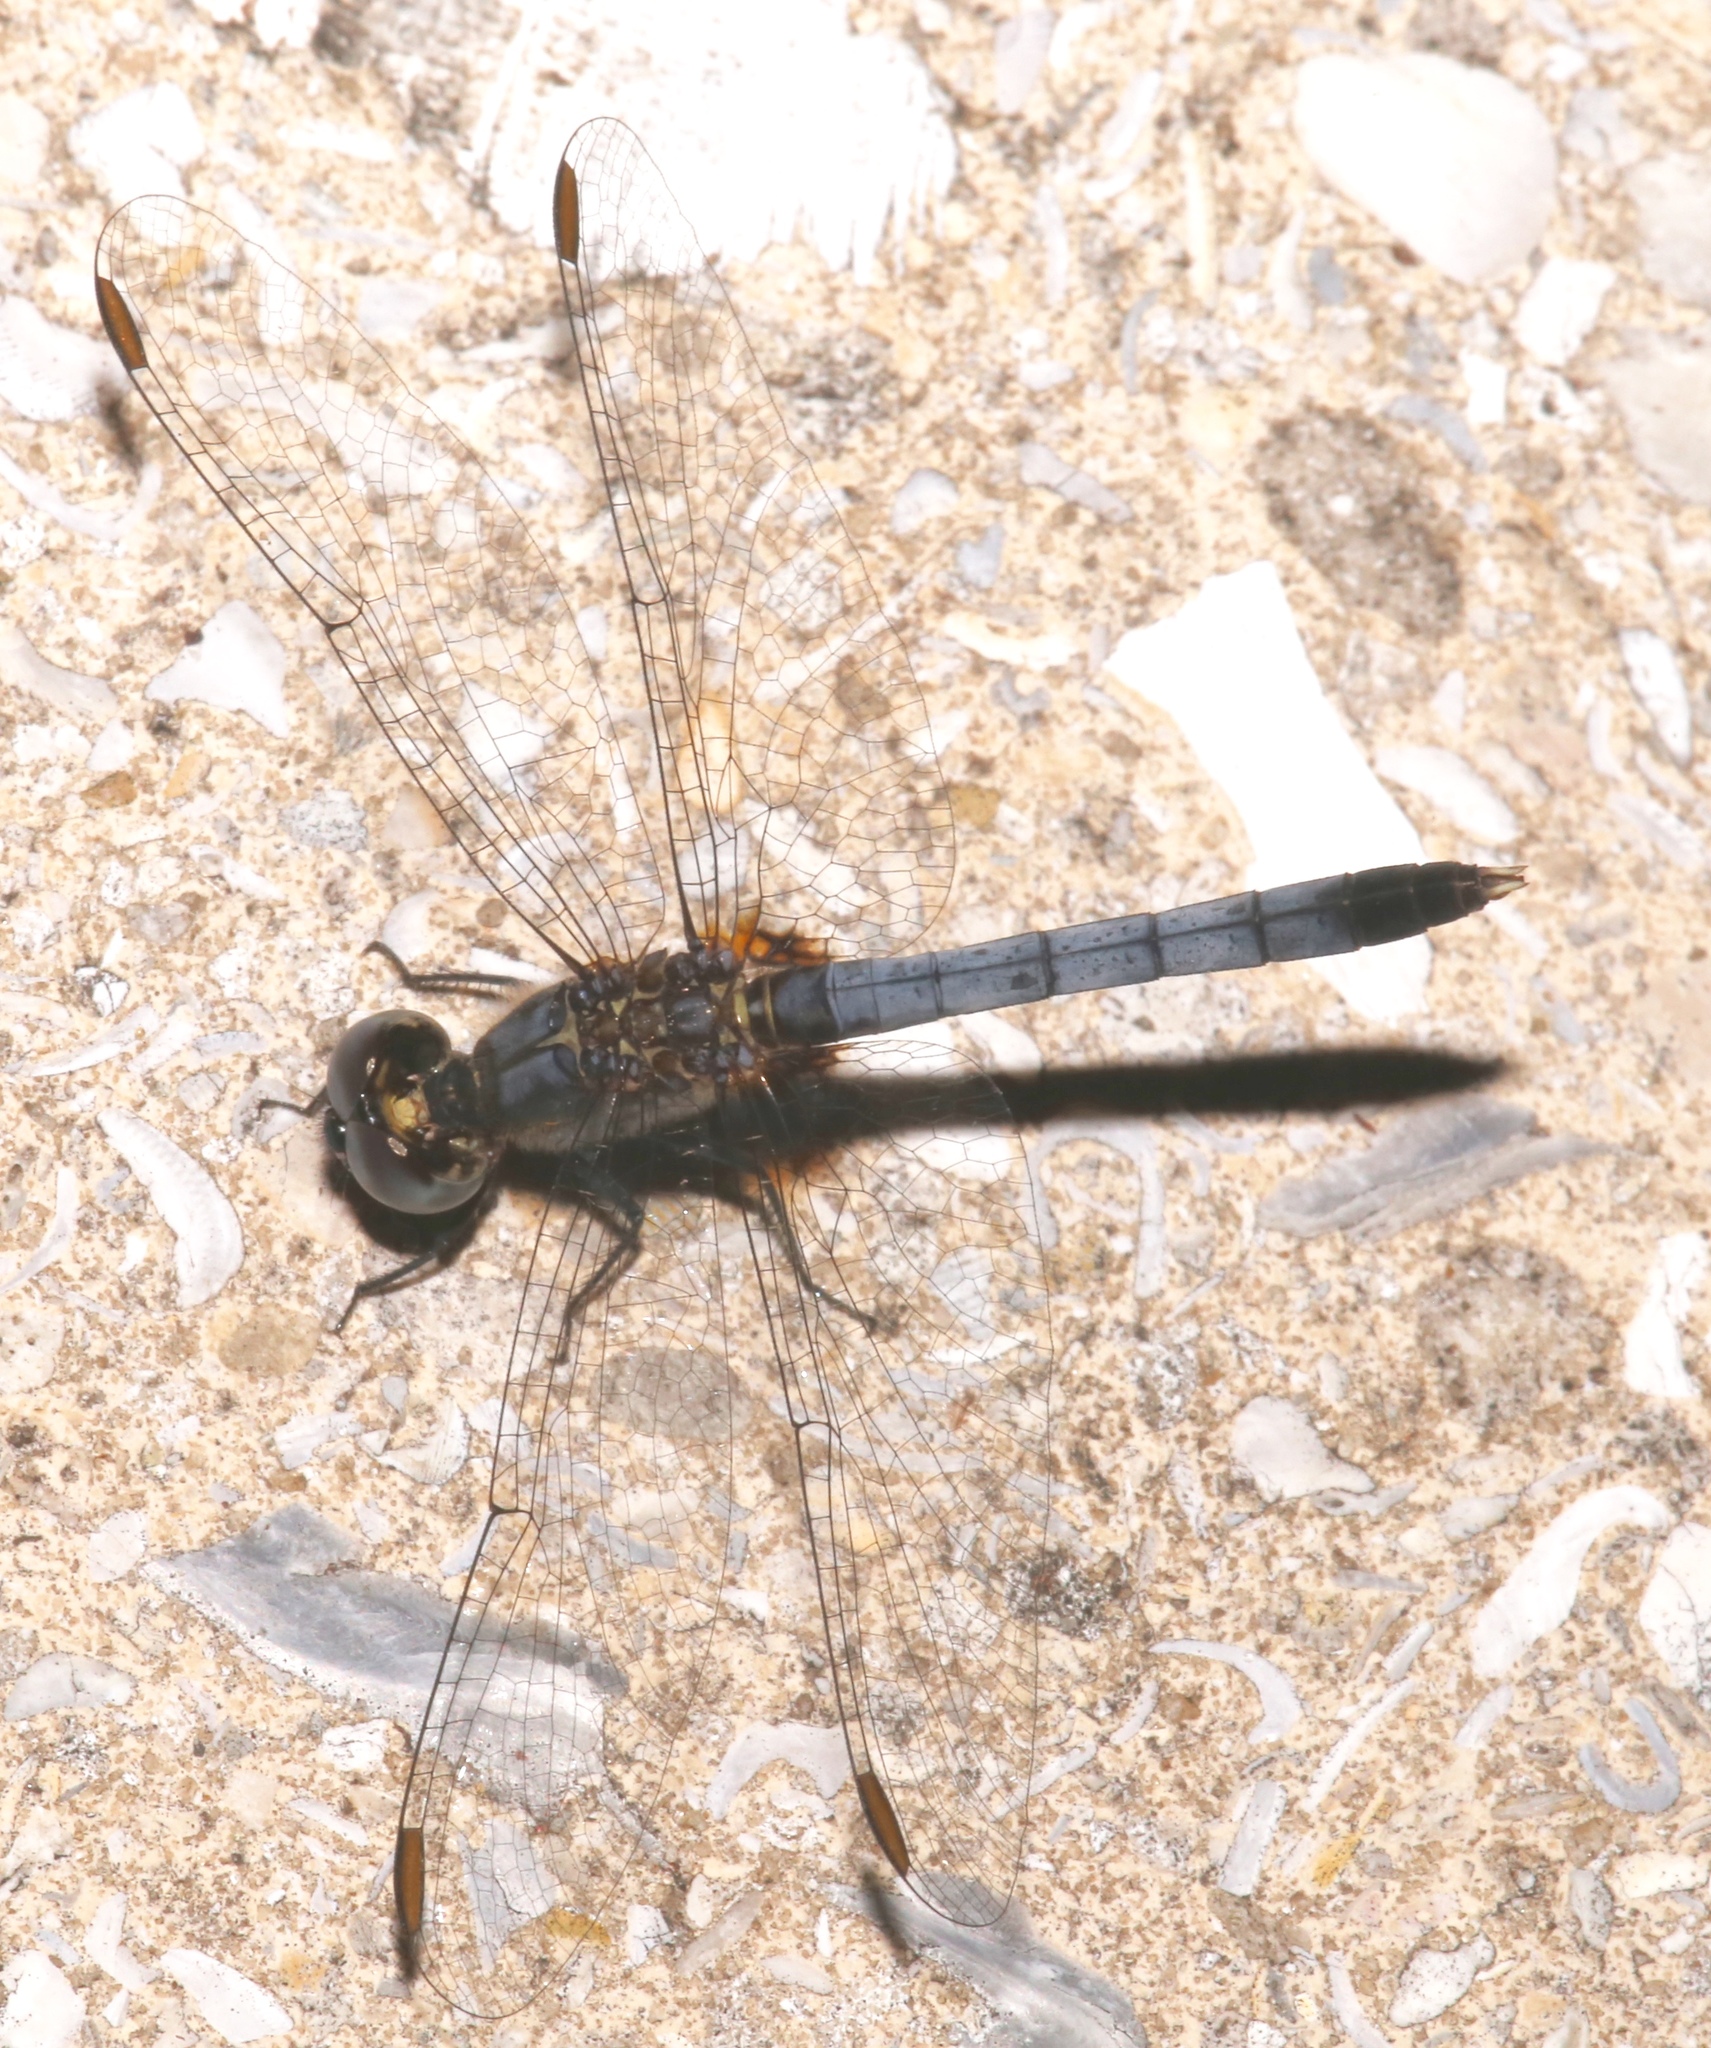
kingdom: Animalia
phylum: Arthropoda
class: Insecta
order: Odonata
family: Libellulidae
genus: Erythrodiplax
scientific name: Erythrodiplax minuscula
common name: Little blue dragonlet
